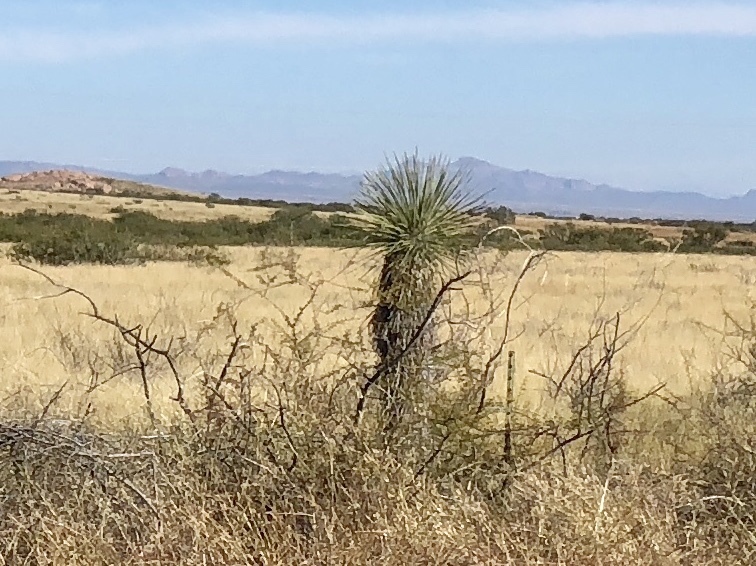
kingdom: Plantae
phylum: Tracheophyta
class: Liliopsida
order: Asparagales
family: Asparagaceae
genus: Yucca
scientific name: Yucca elata
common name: Palmella
